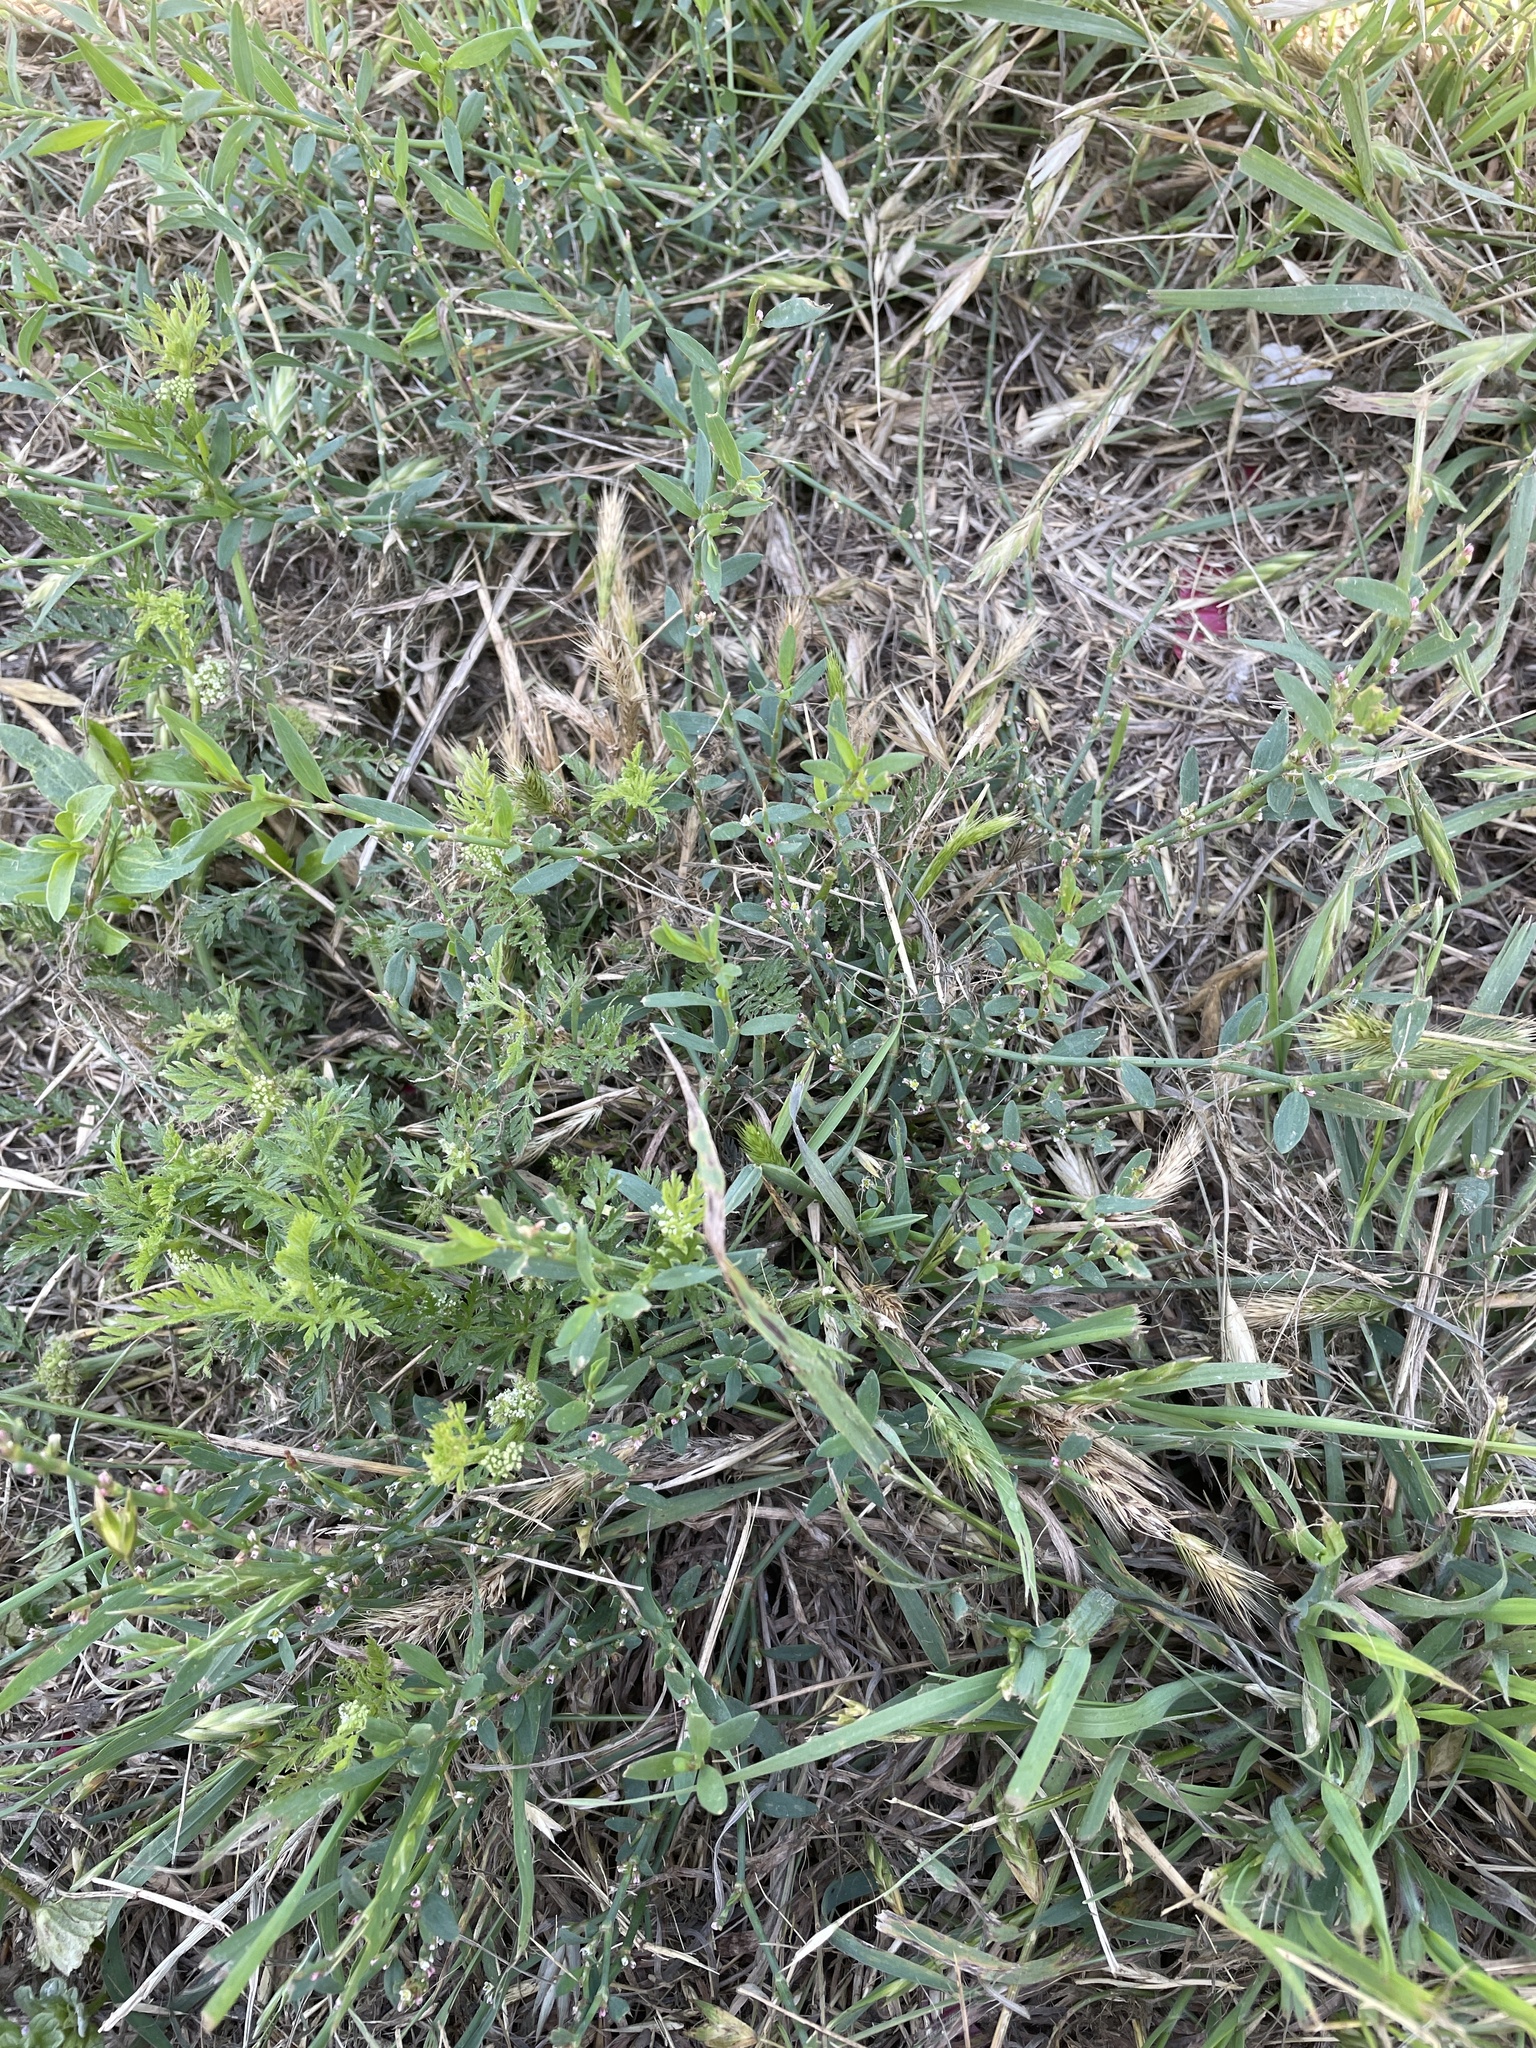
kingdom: Plantae
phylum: Tracheophyta
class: Magnoliopsida
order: Caryophyllales
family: Polygonaceae
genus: Polygonum
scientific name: Polygonum aviculare
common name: Prostrate knotweed
